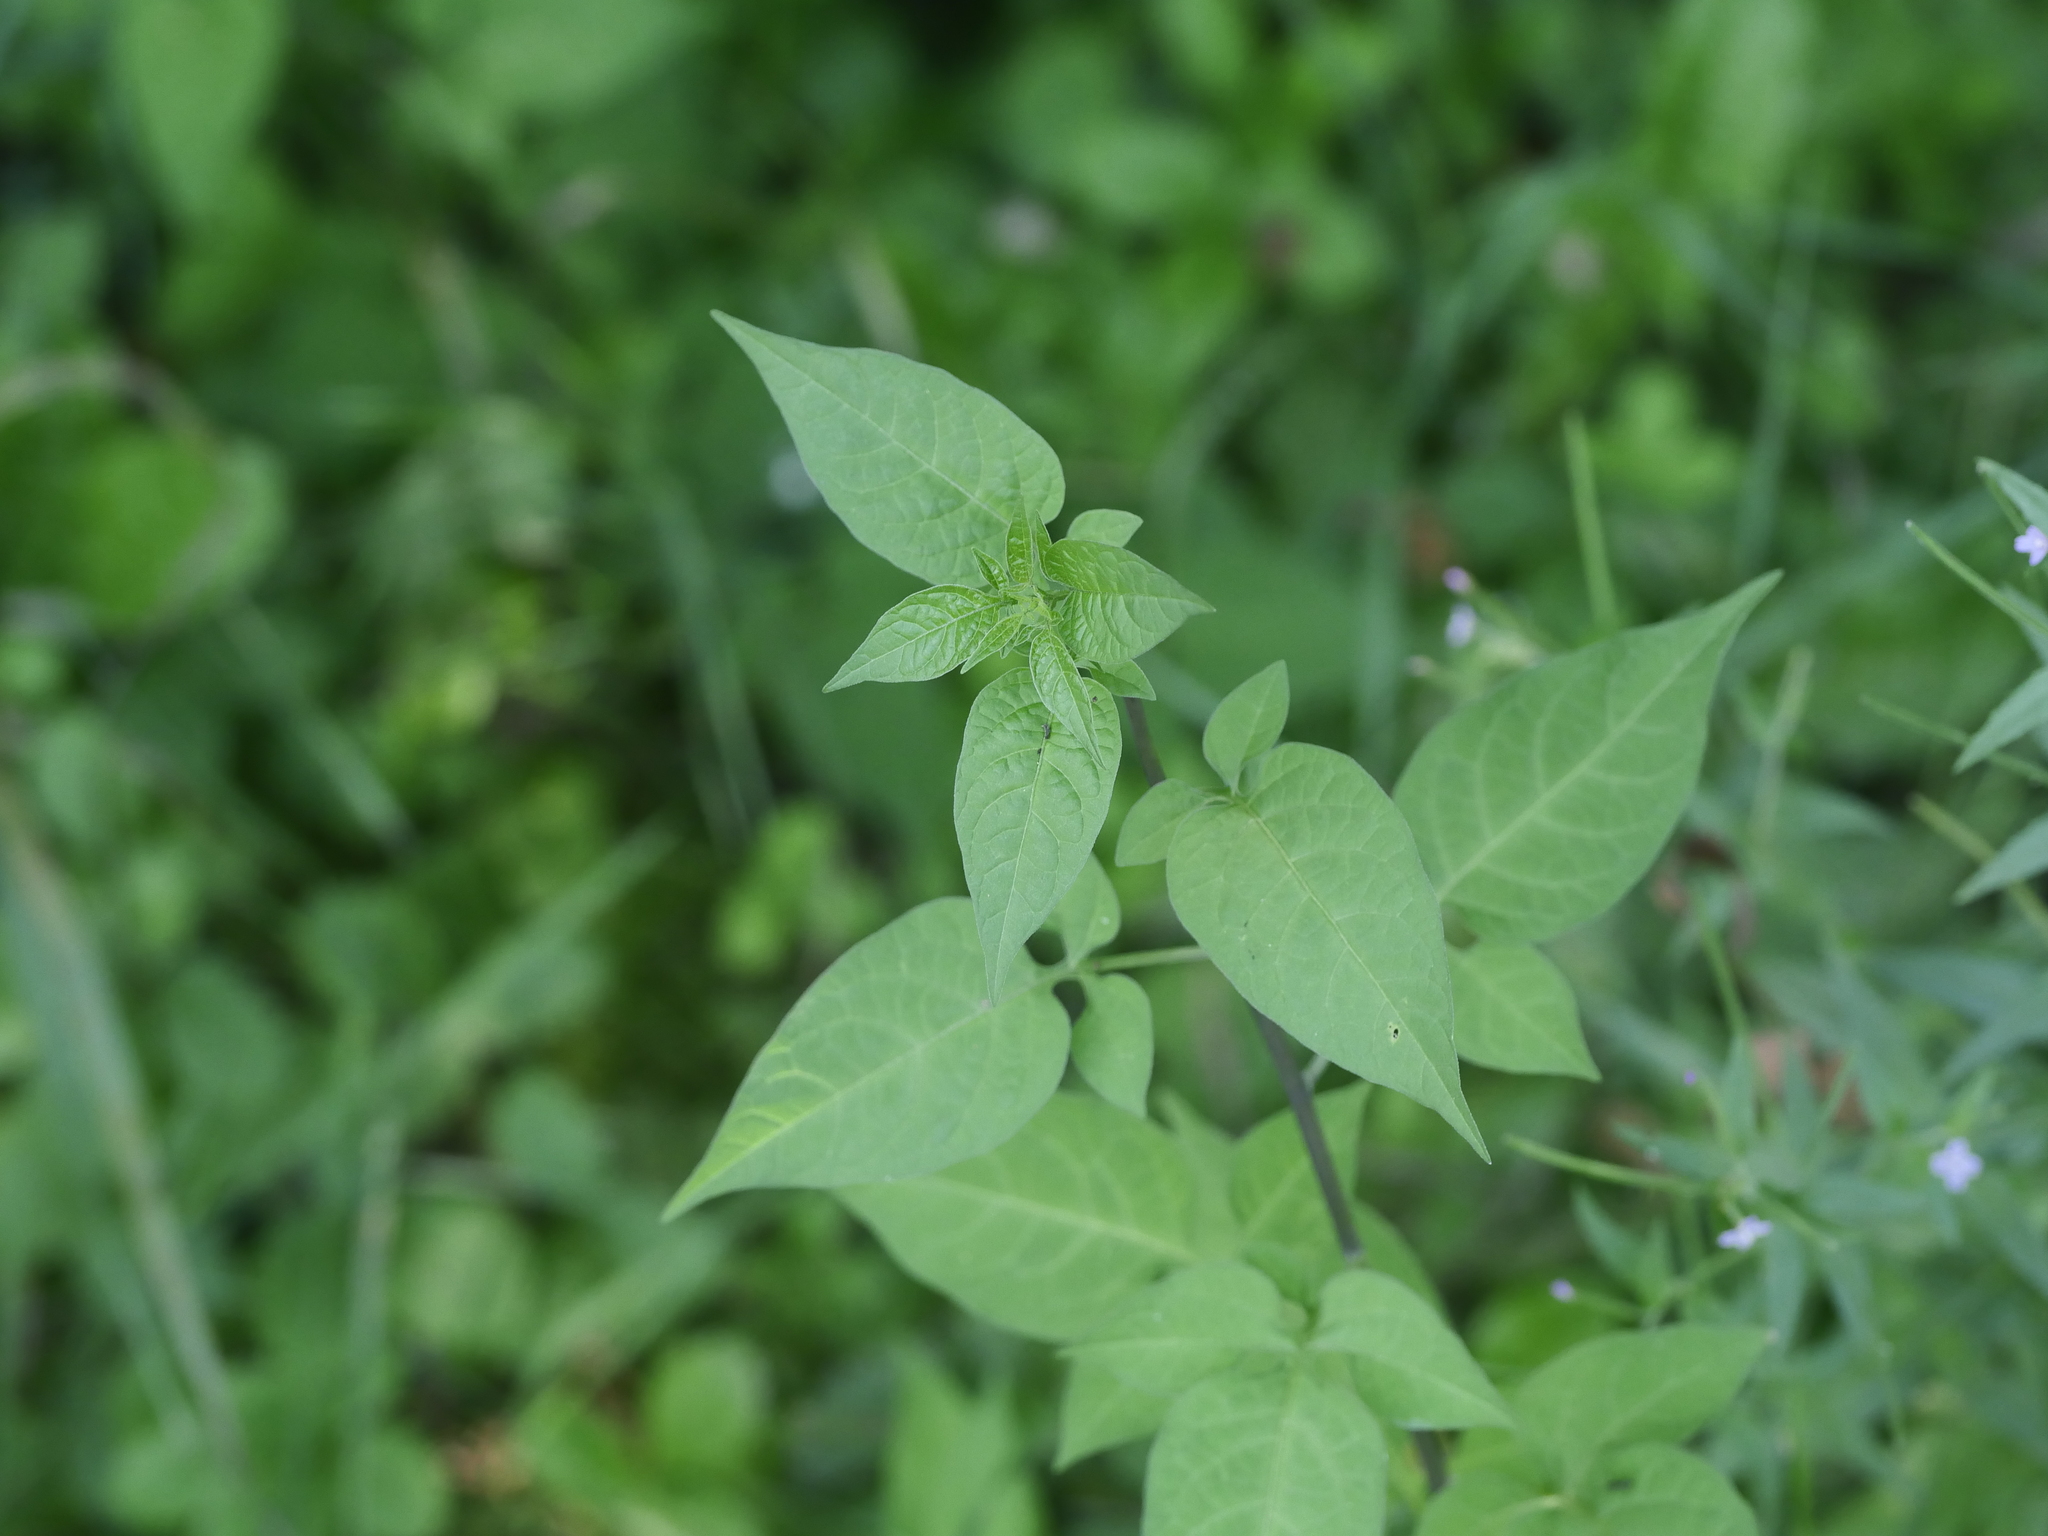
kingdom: Plantae
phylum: Tracheophyta
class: Magnoliopsida
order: Solanales
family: Solanaceae
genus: Solanum
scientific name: Solanum dulcamara
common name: Climbing nightshade
